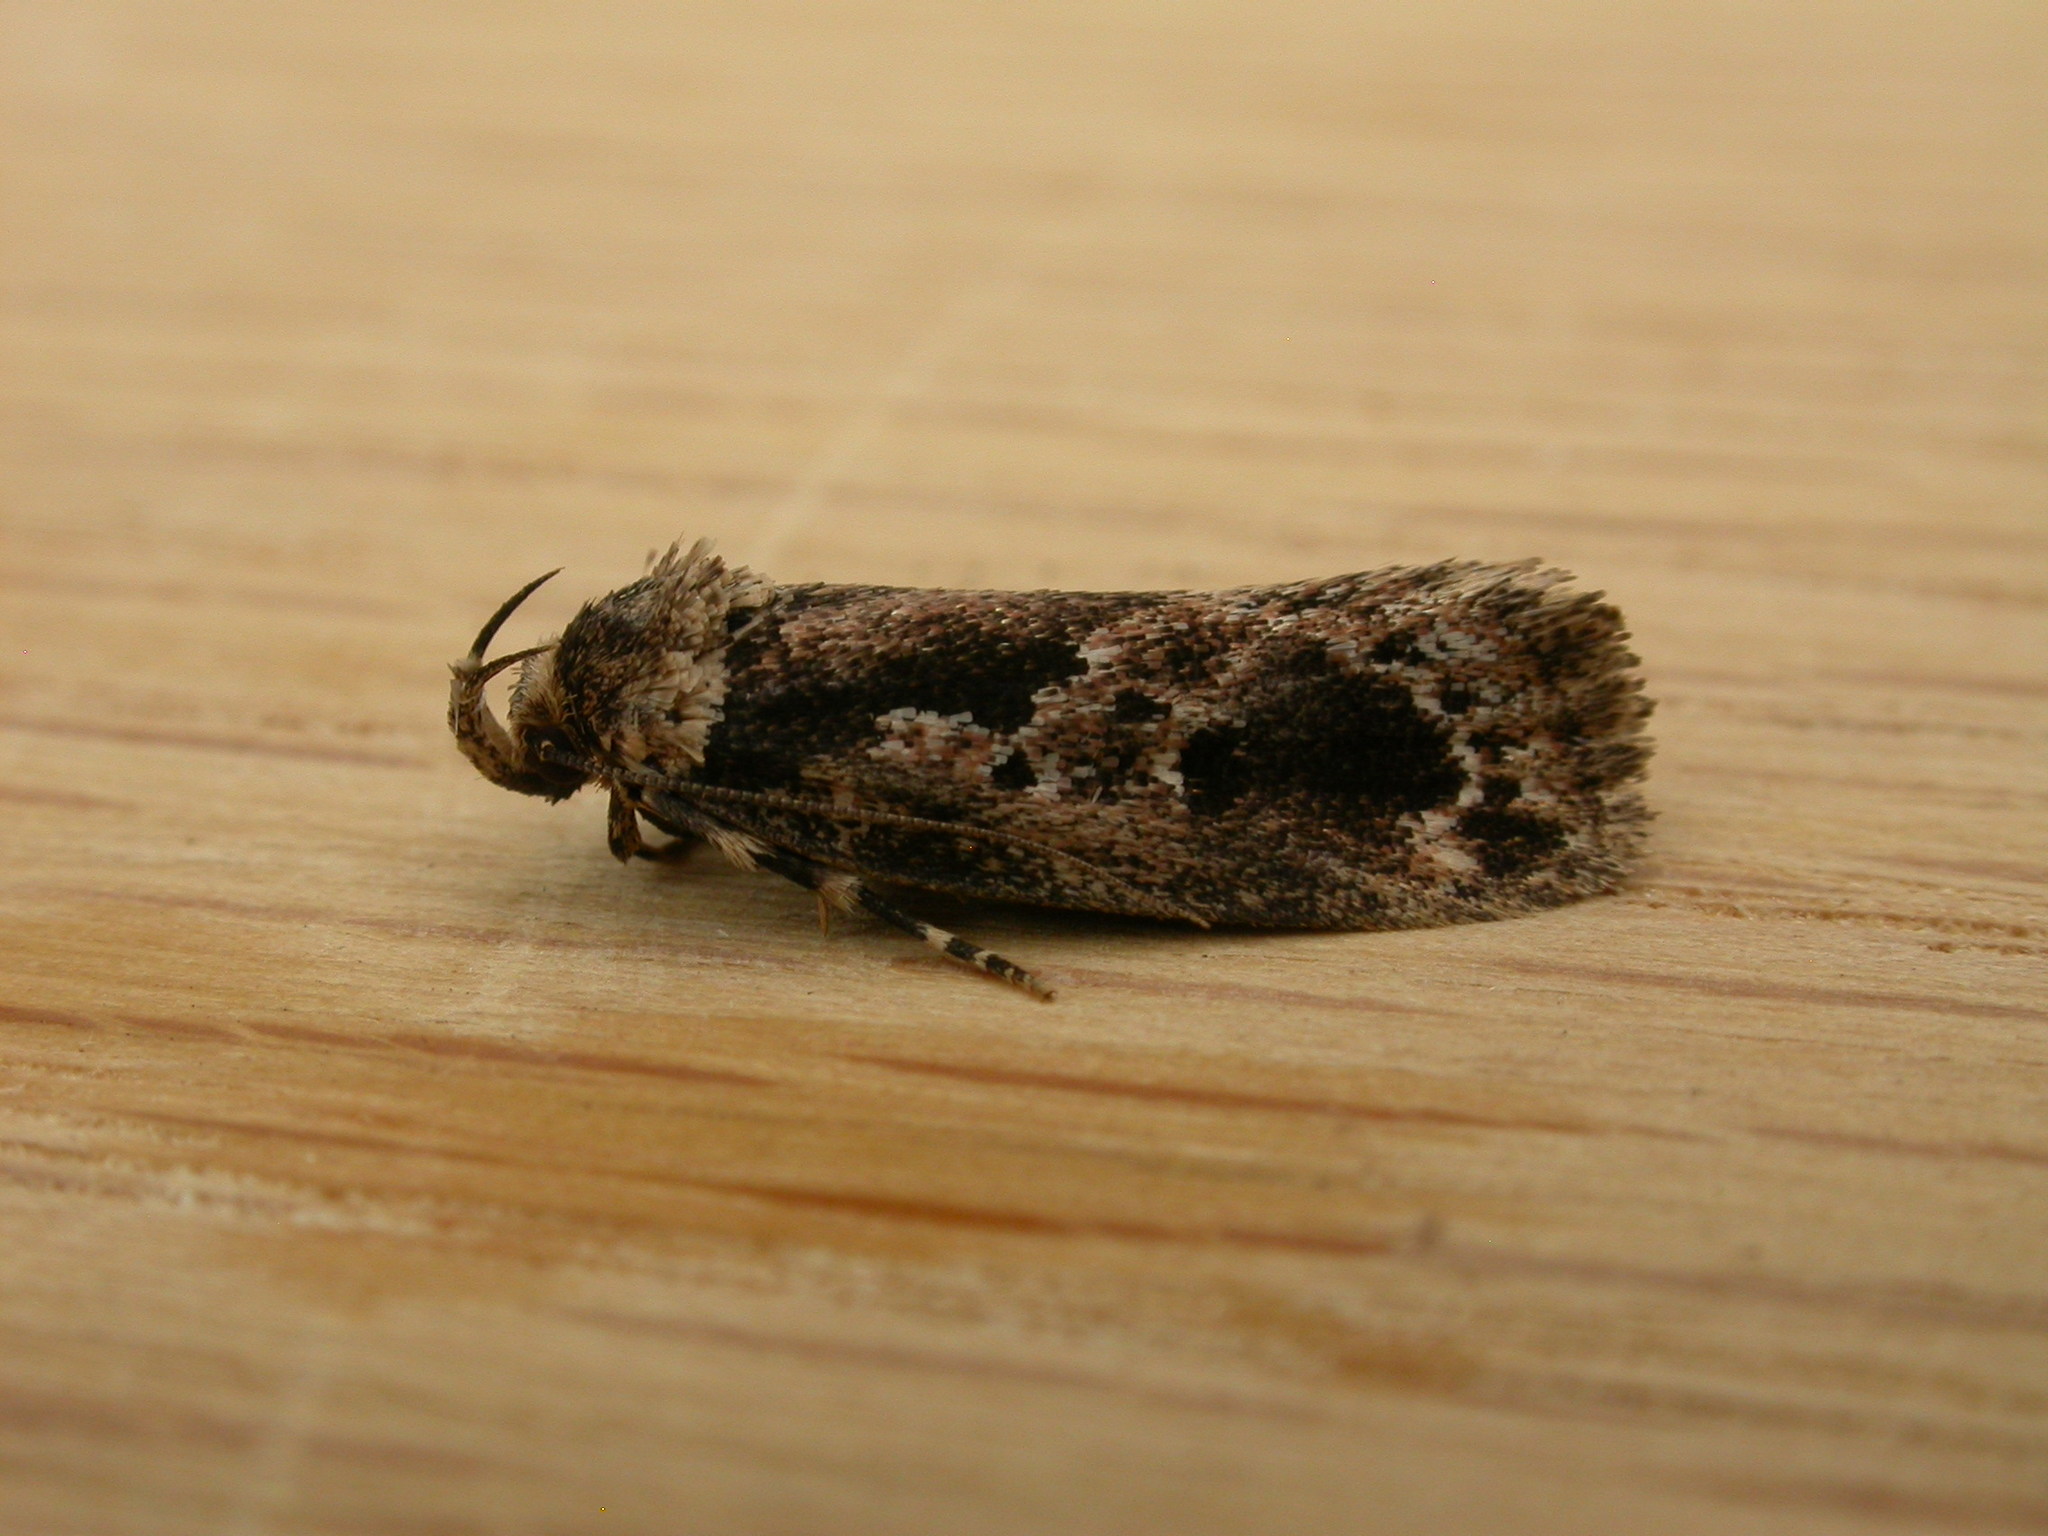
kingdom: Animalia
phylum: Arthropoda
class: Insecta
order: Lepidoptera
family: Oecophoridae
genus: Barea
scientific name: Barea consignatella
